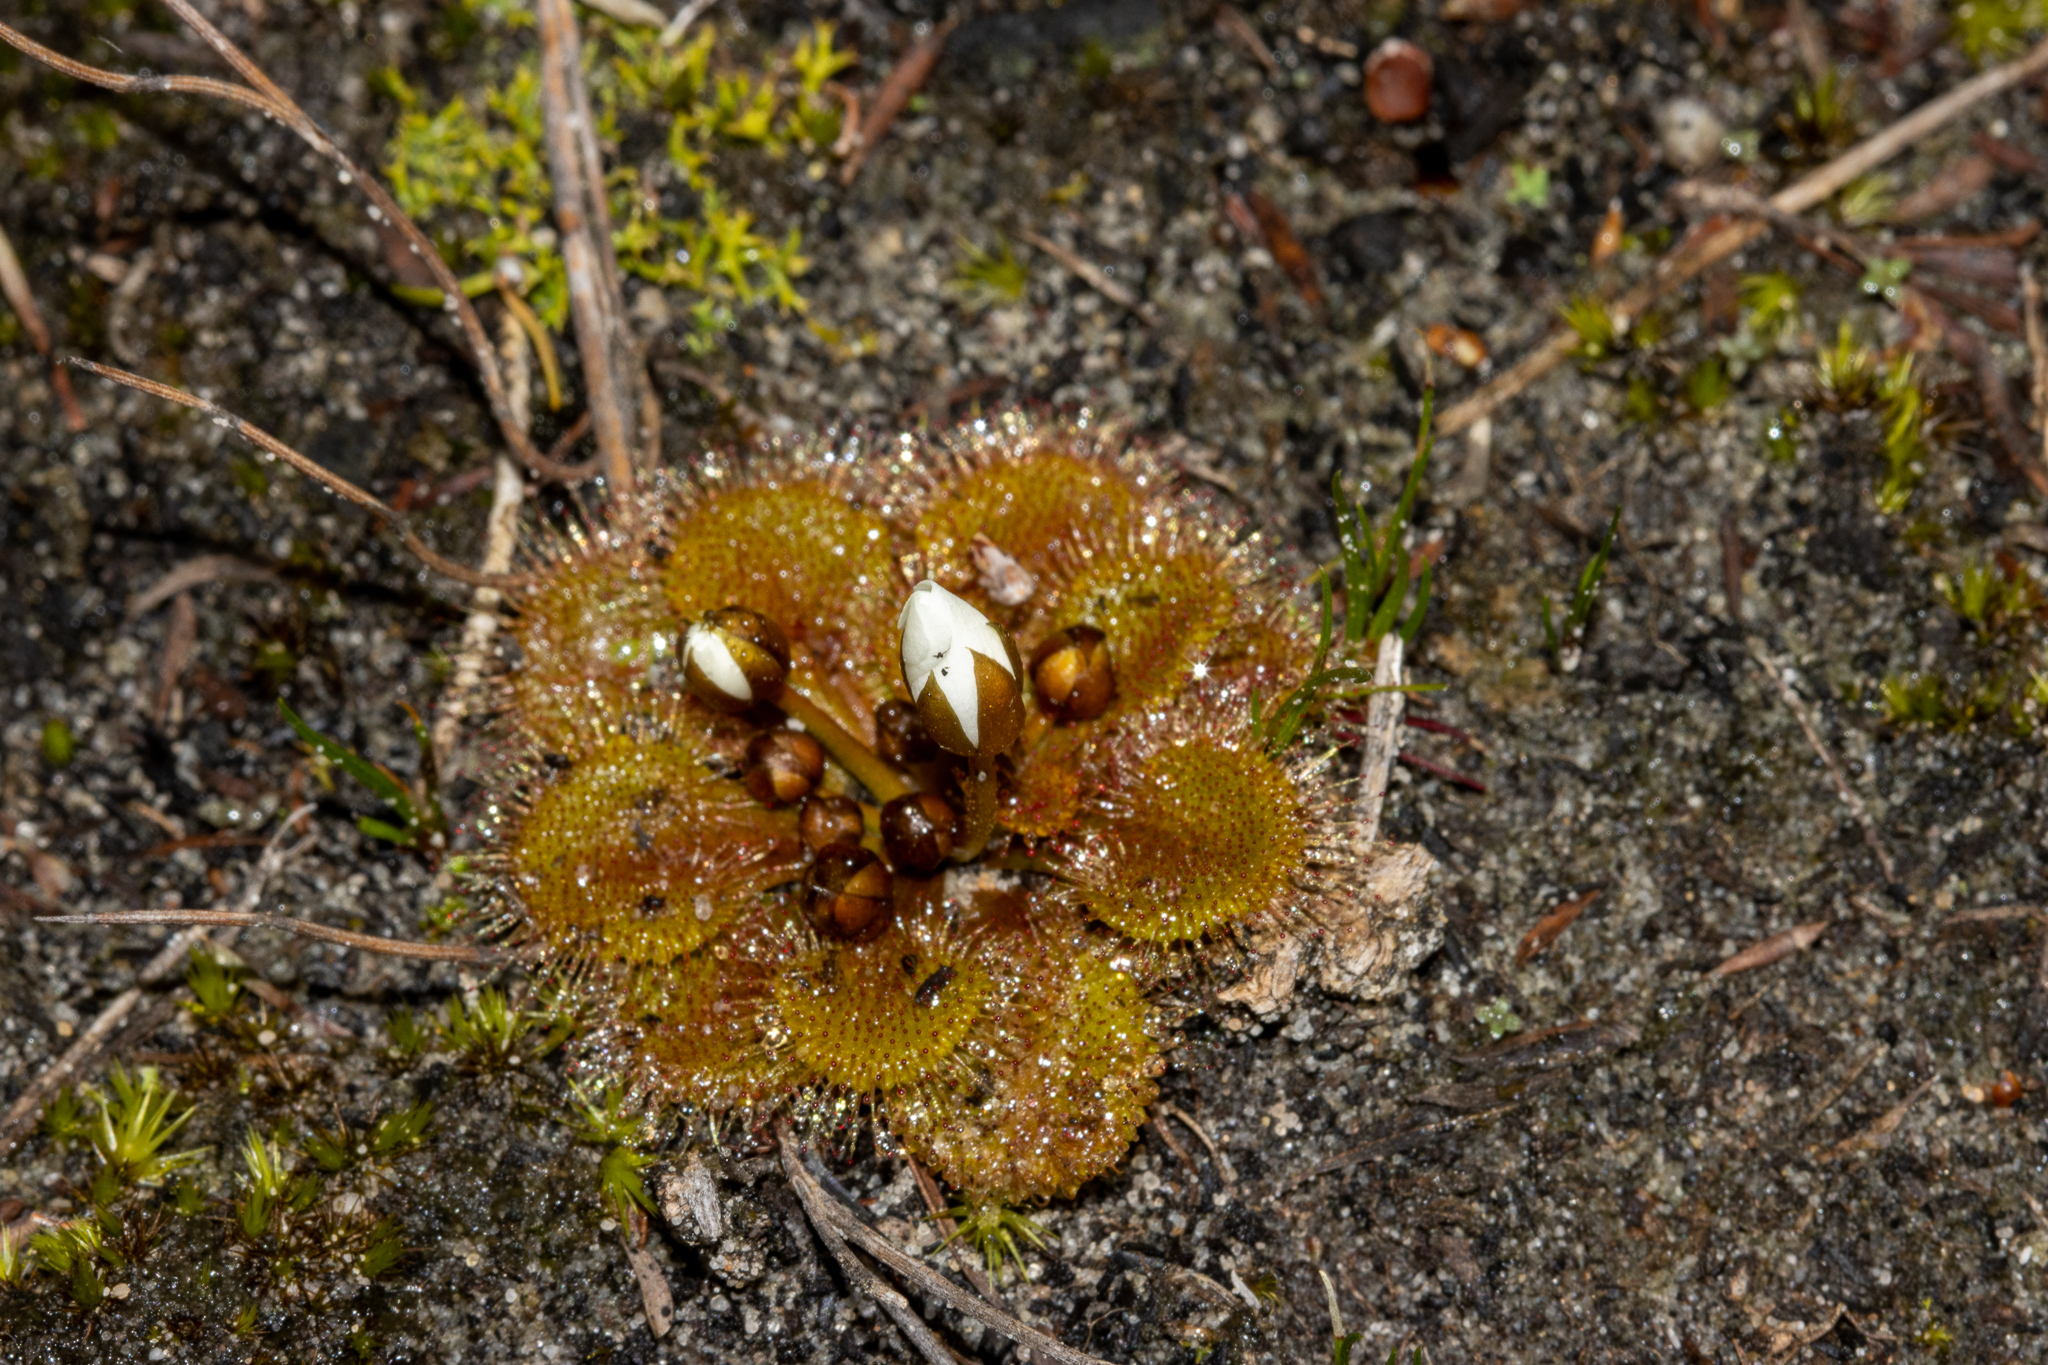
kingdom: Plantae
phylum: Tracheophyta
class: Magnoliopsida
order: Caryophyllales
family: Droseraceae
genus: Drosera
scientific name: Drosera whittakeri
